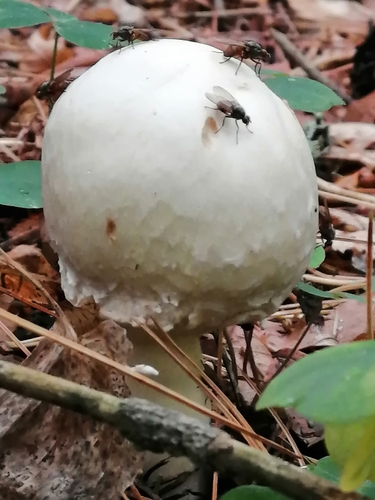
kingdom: Fungi
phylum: Basidiomycota
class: Agaricomycetes
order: Agaricales
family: Agaricaceae
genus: Agaricus
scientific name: Agaricus sylvicola
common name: Wood mushroom
